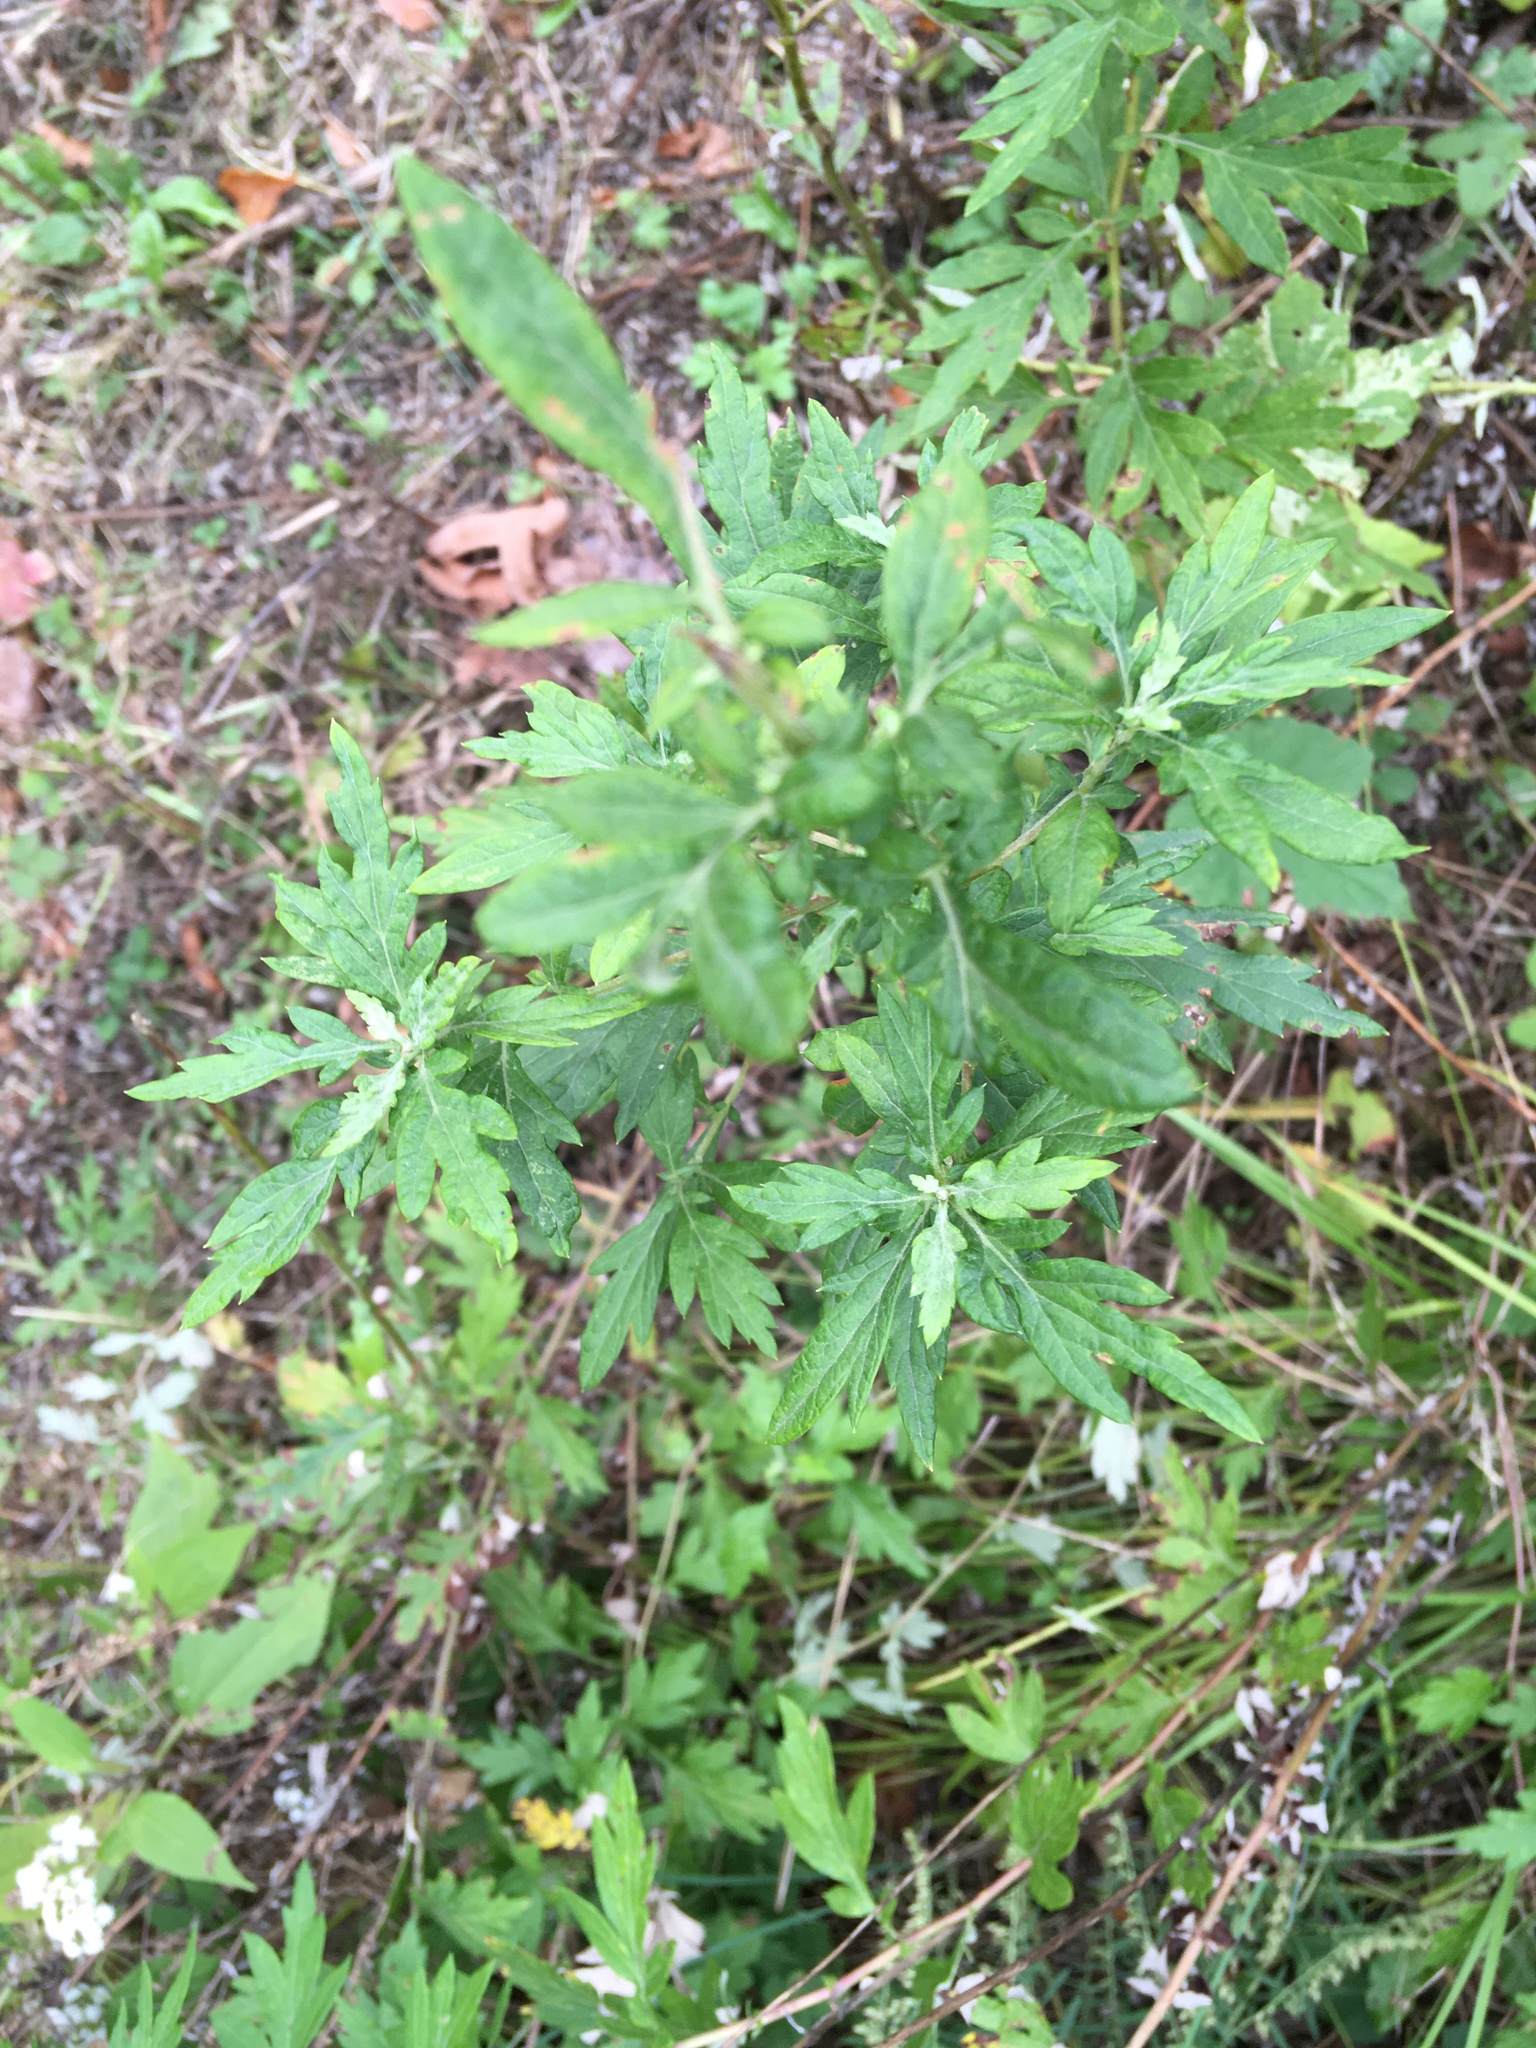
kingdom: Plantae
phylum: Tracheophyta
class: Magnoliopsida
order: Asterales
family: Asteraceae
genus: Artemisia
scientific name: Artemisia vulgaris
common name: Mugwort
